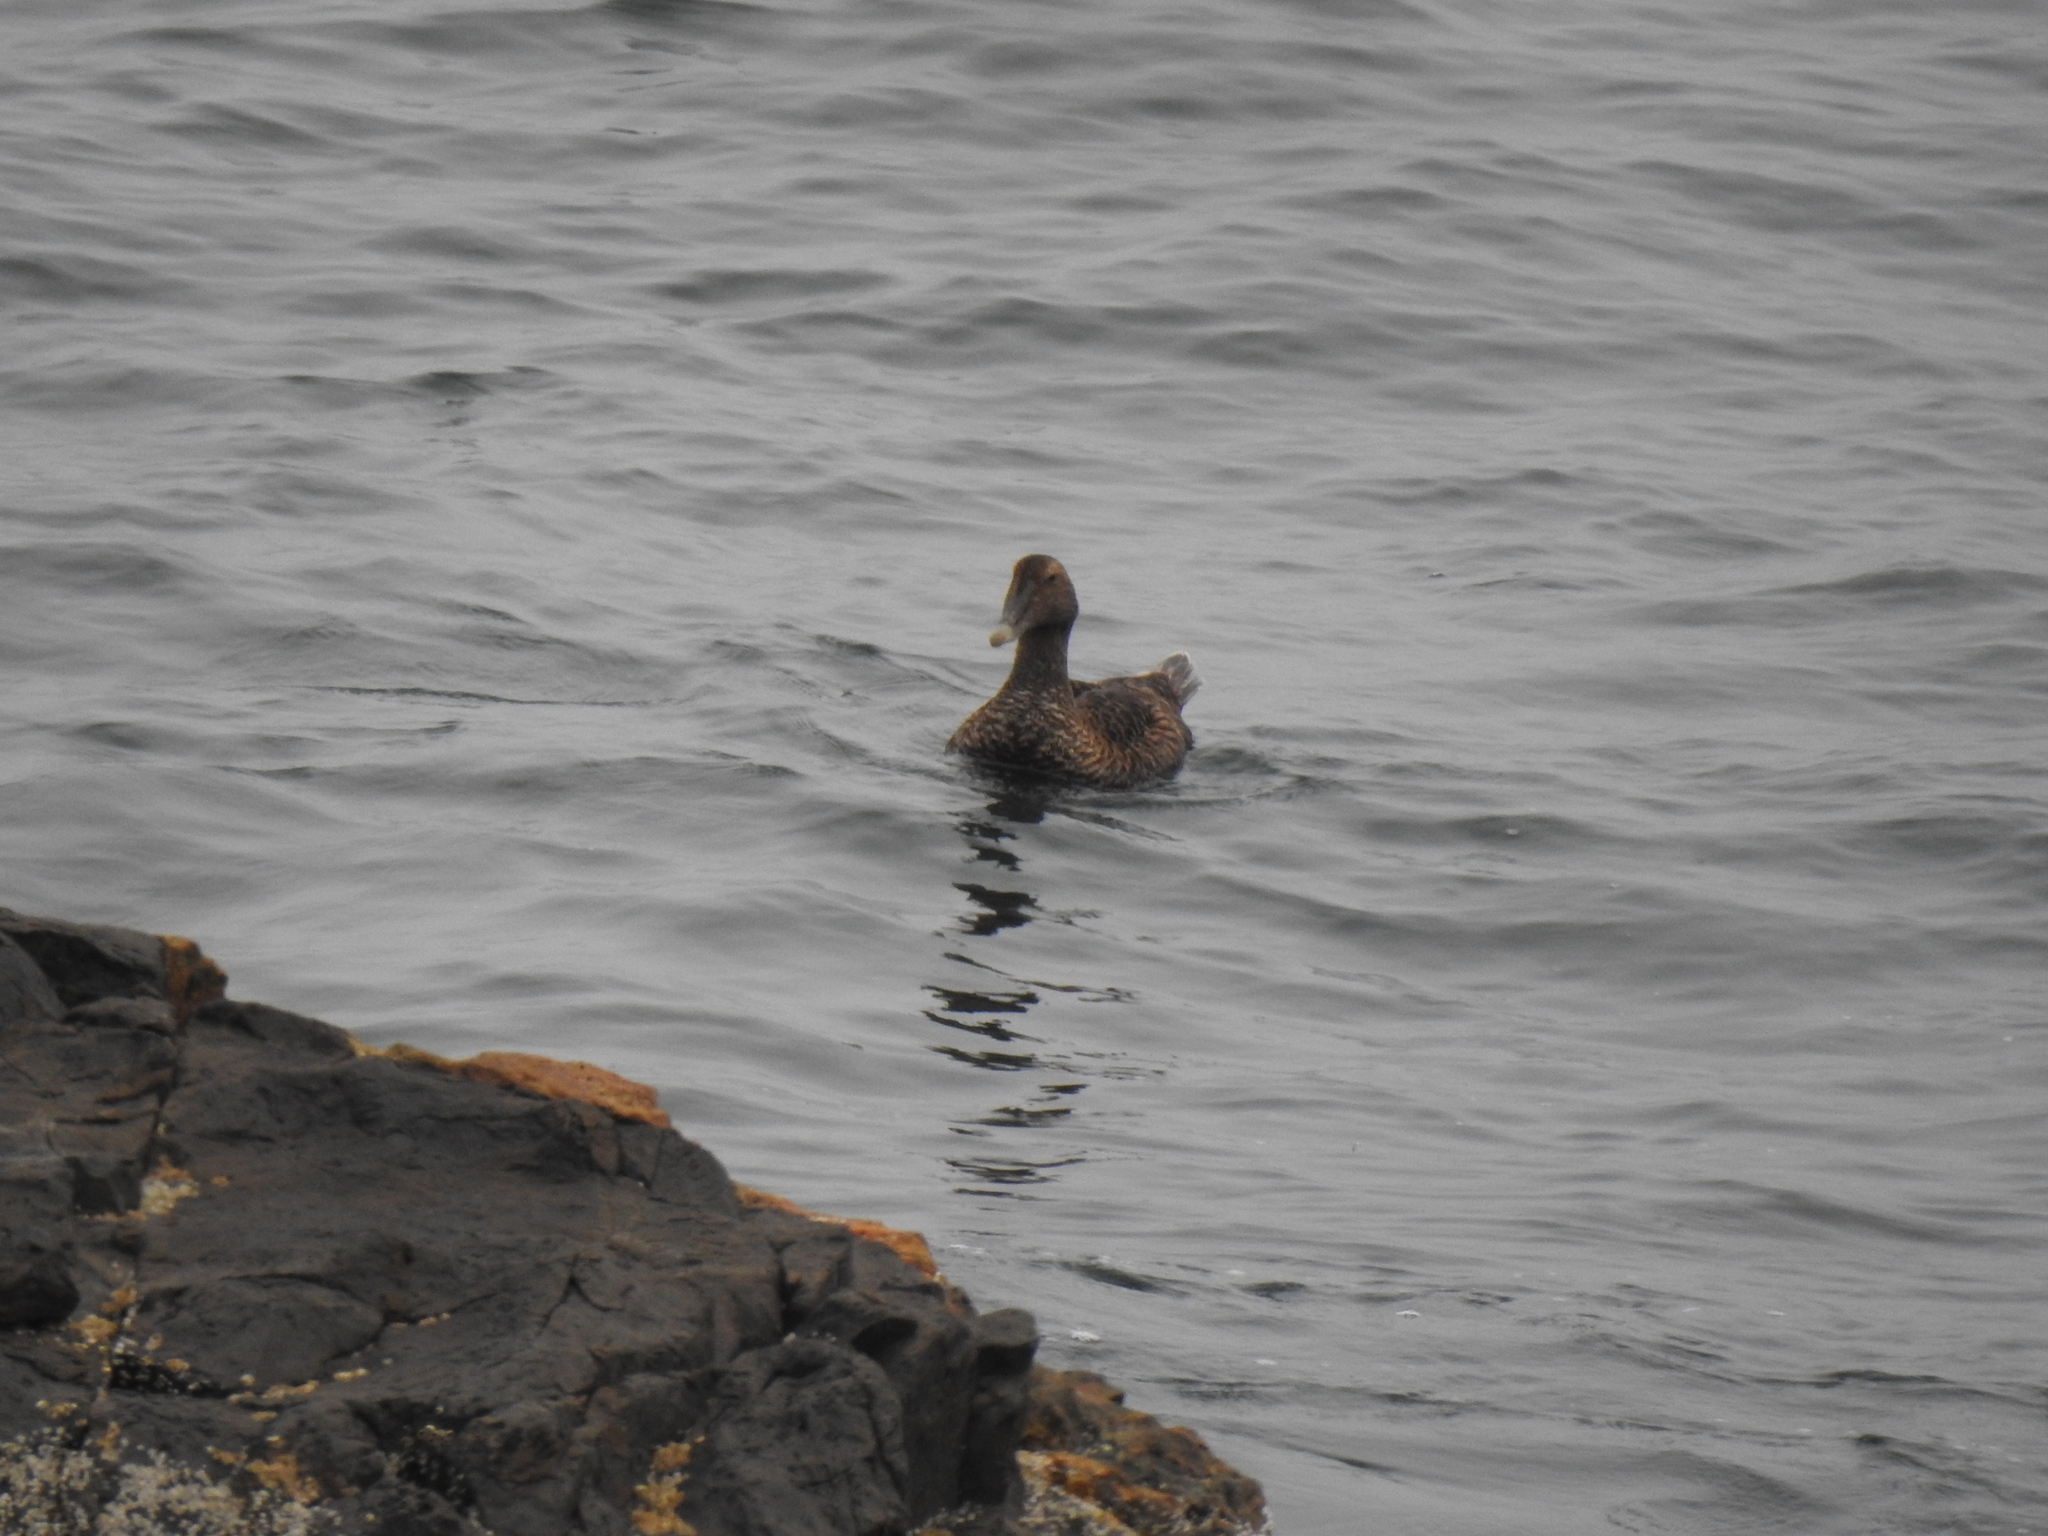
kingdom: Animalia
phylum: Chordata
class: Aves
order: Anseriformes
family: Anatidae
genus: Somateria
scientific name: Somateria mollissima
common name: Common eider
